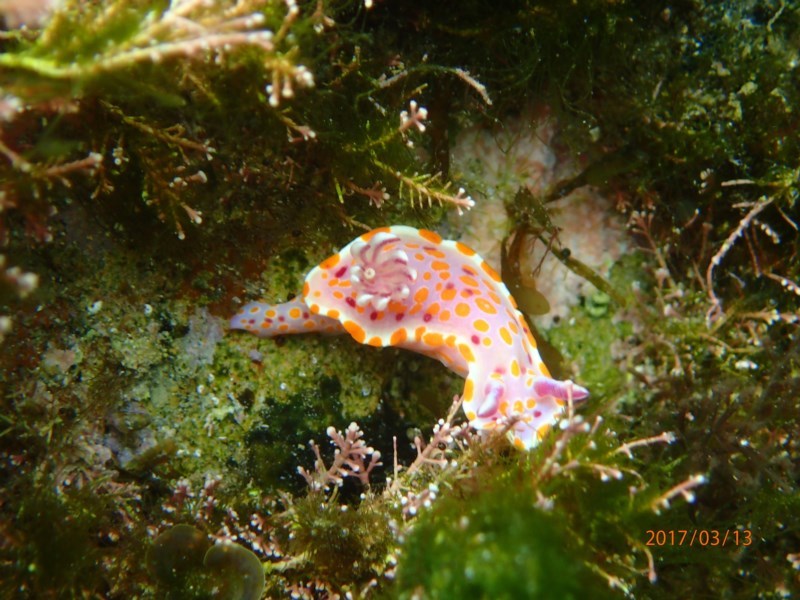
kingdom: Animalia
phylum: Mollusca
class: Gastropoda
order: Nudibranchia
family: Chromodorididae
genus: Ceratosoma
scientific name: Ceratosoma amoenum
